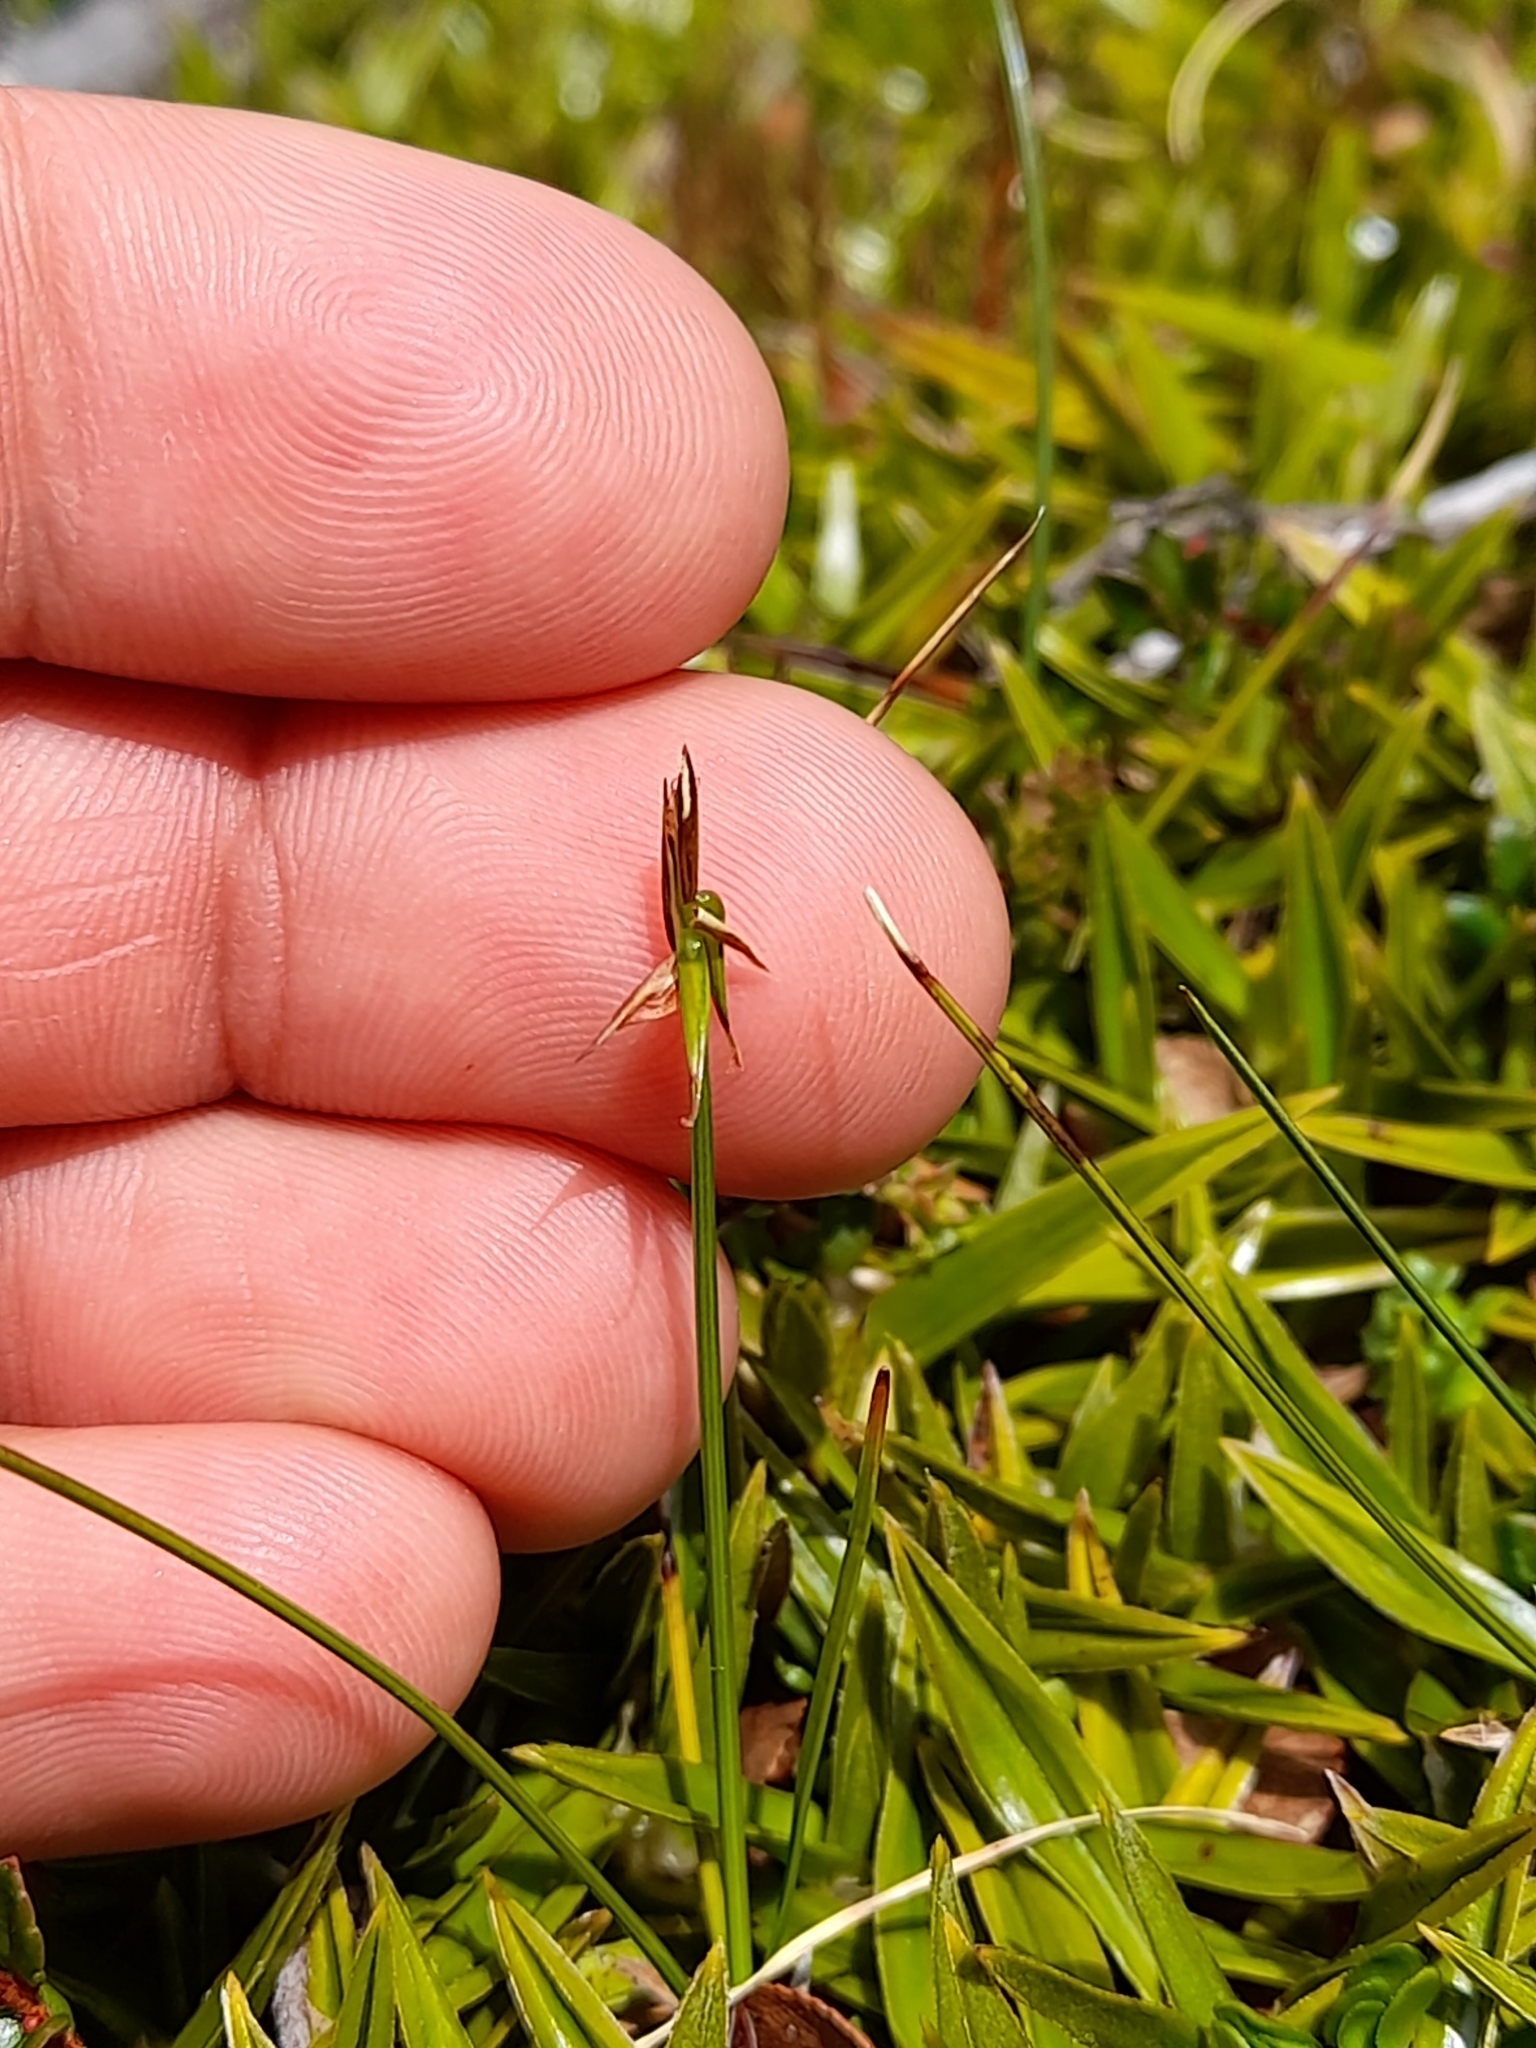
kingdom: Plantae
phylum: Tracheophyta
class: Liliopsida
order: Poales
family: Cyperaceae
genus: Carex
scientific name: Carex camptoglochin
